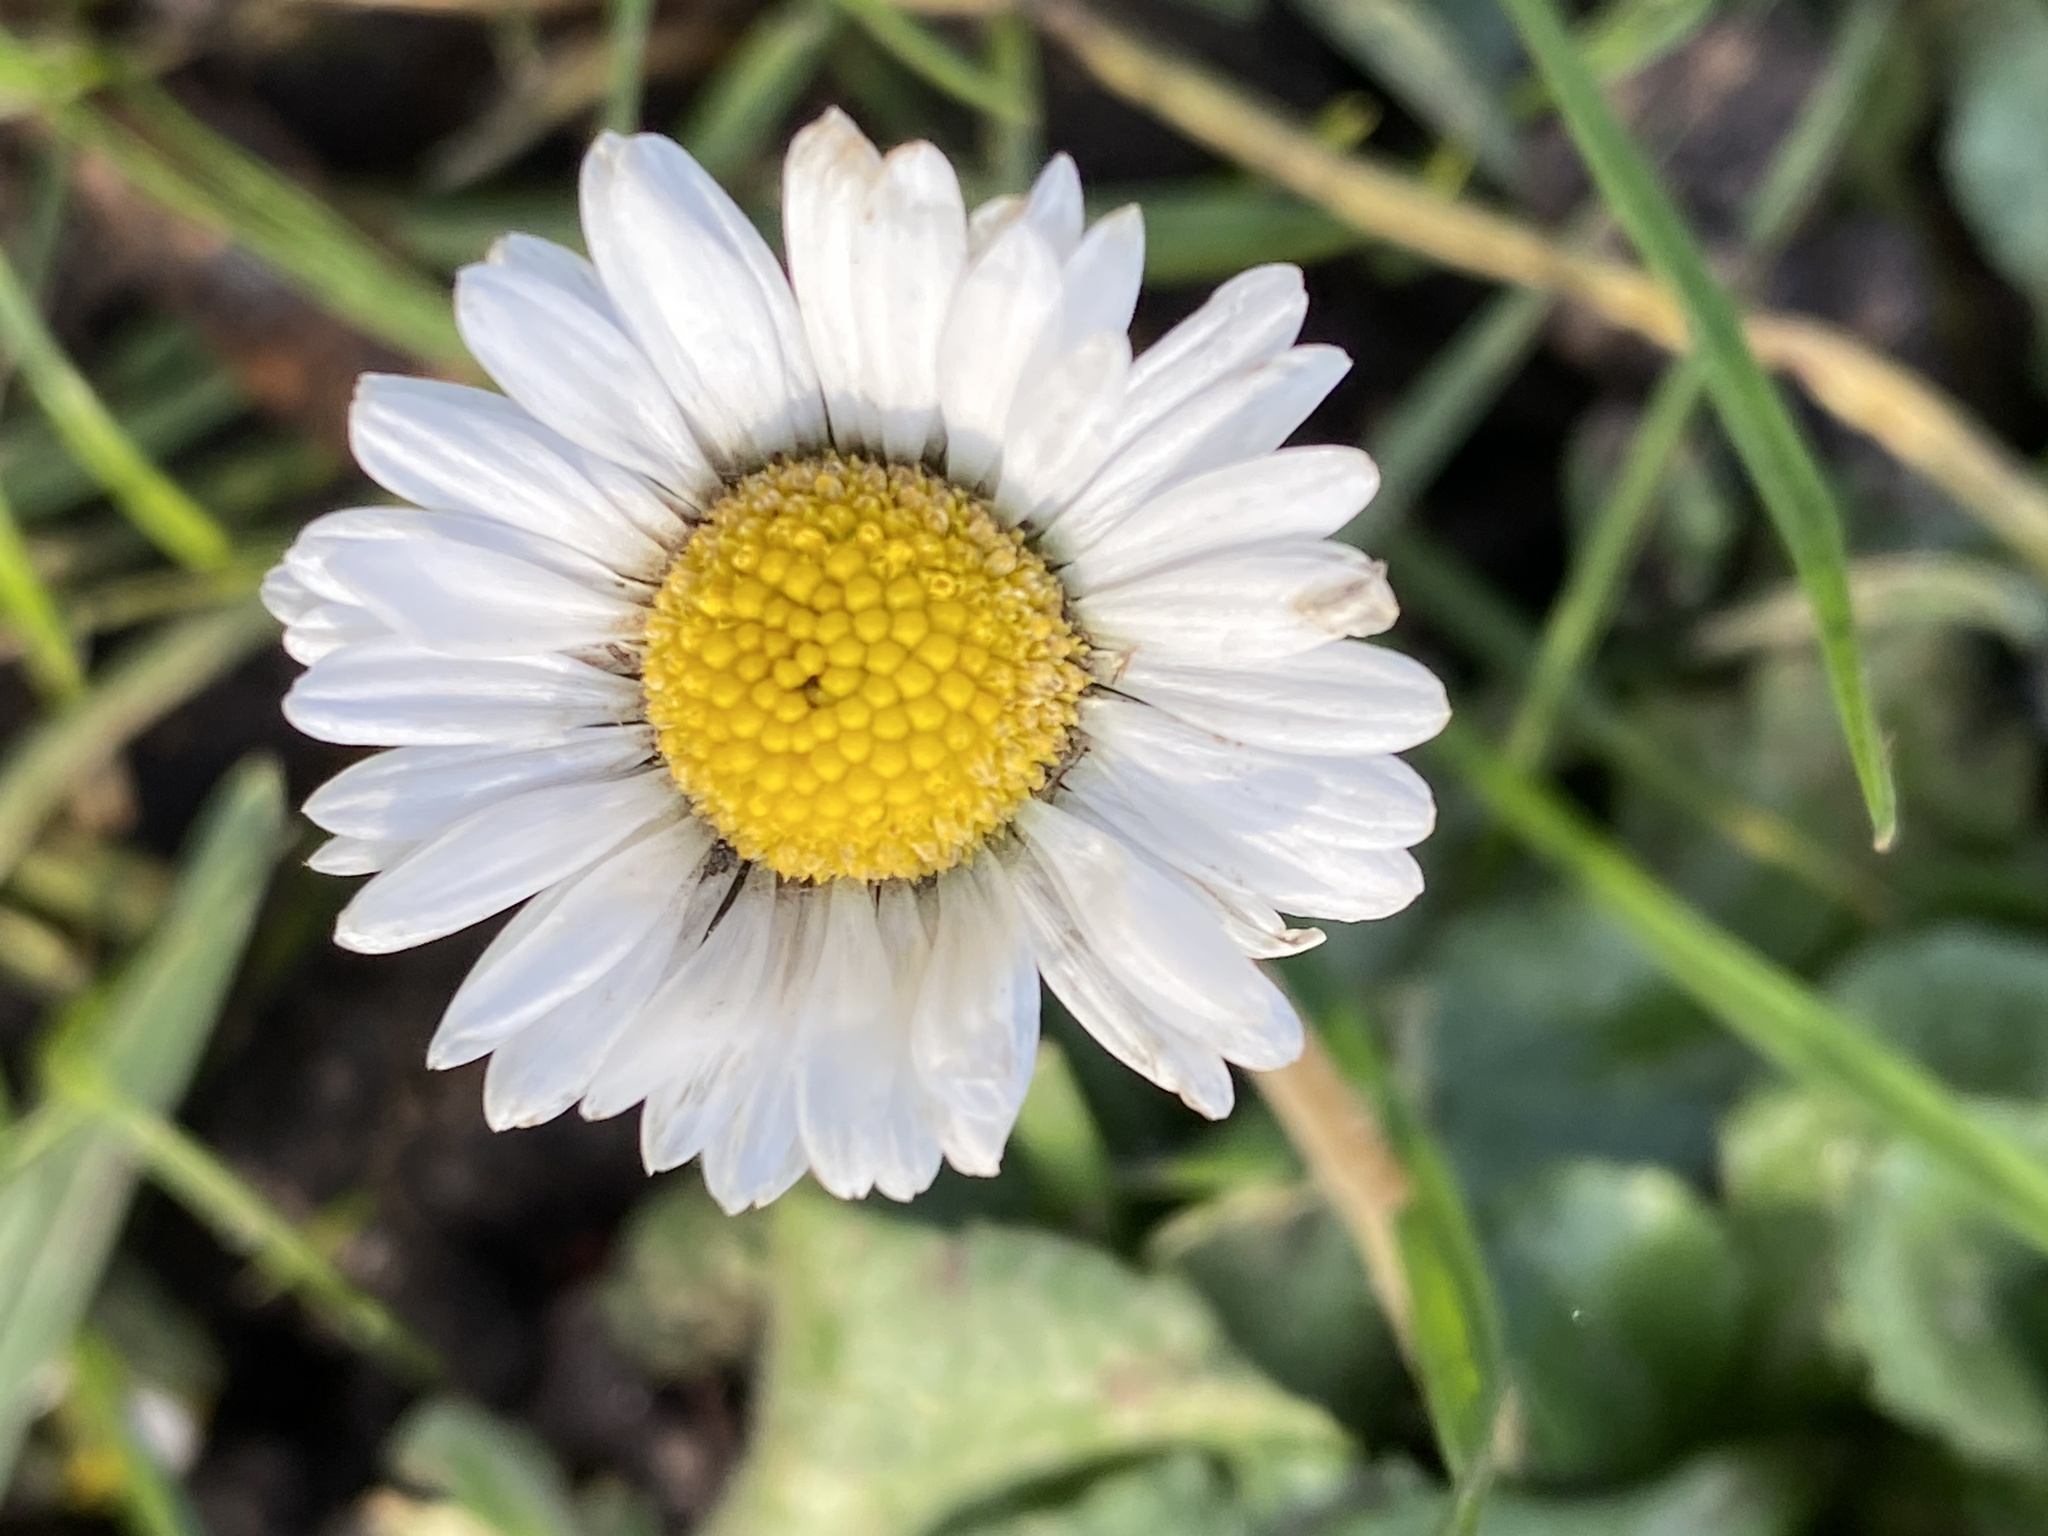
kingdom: Plantae
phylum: Tracheophyta
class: Magnoliopsida
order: Asterales
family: Asteraceae
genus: Bellis
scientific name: Bellis perennis
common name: Lawndaisy
